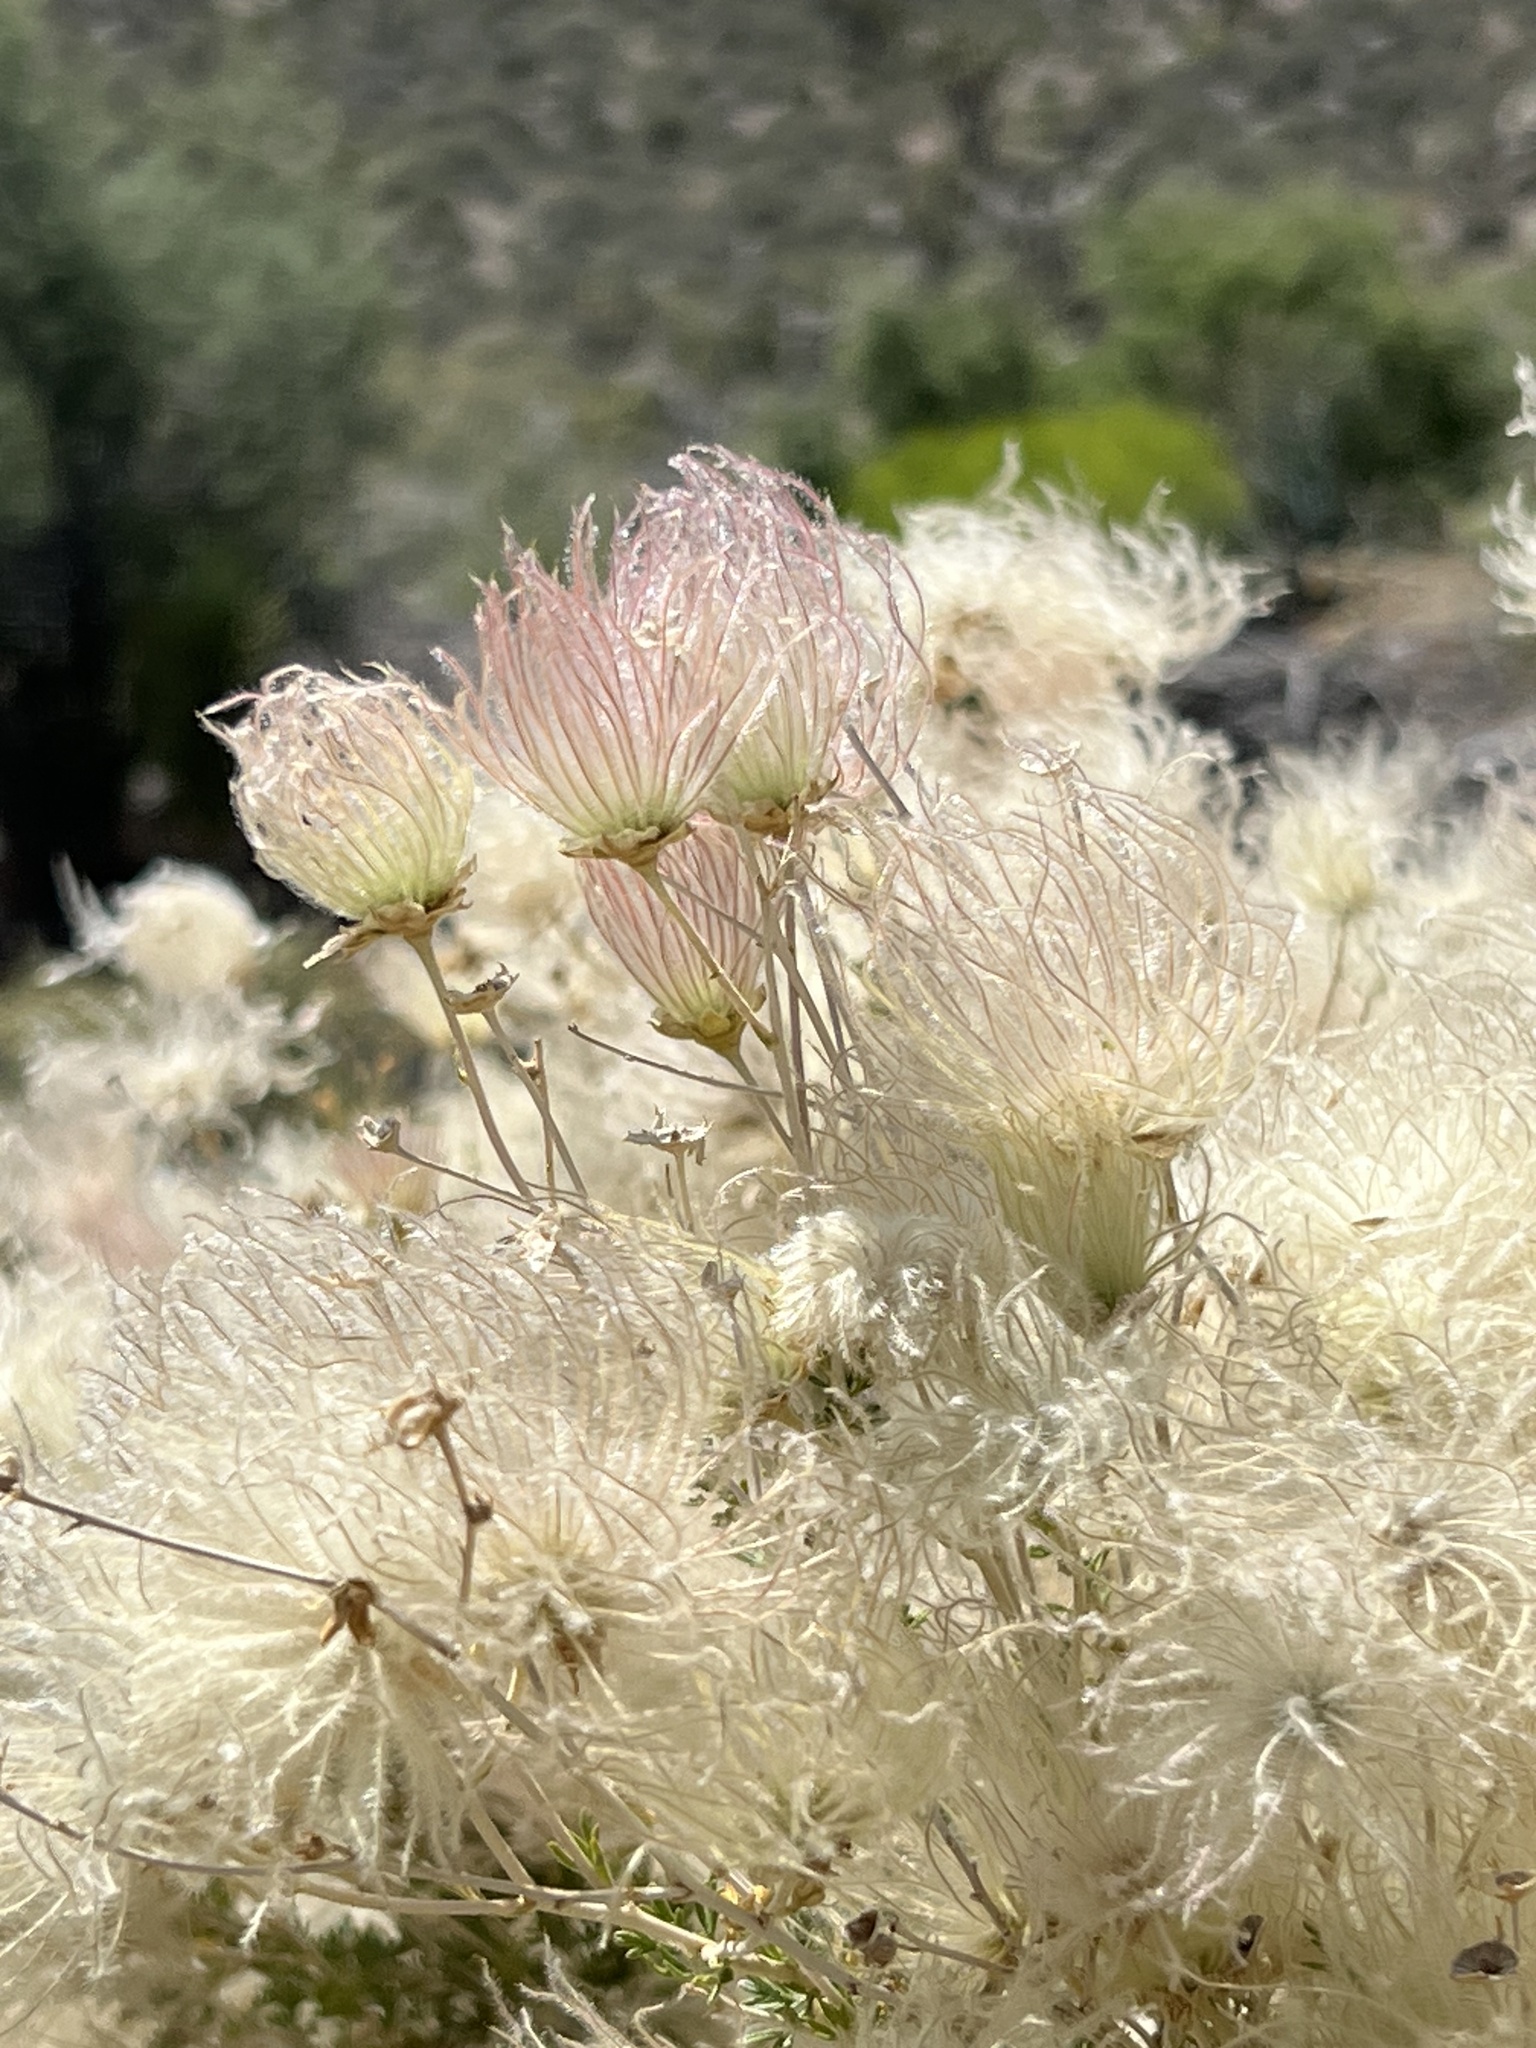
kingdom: Plantae
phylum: Tracheophyta
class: Magnoliopsida
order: Rosales
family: Rosaceae
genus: Fallugia
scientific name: Fallugia paradoxa
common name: Apache-plume
